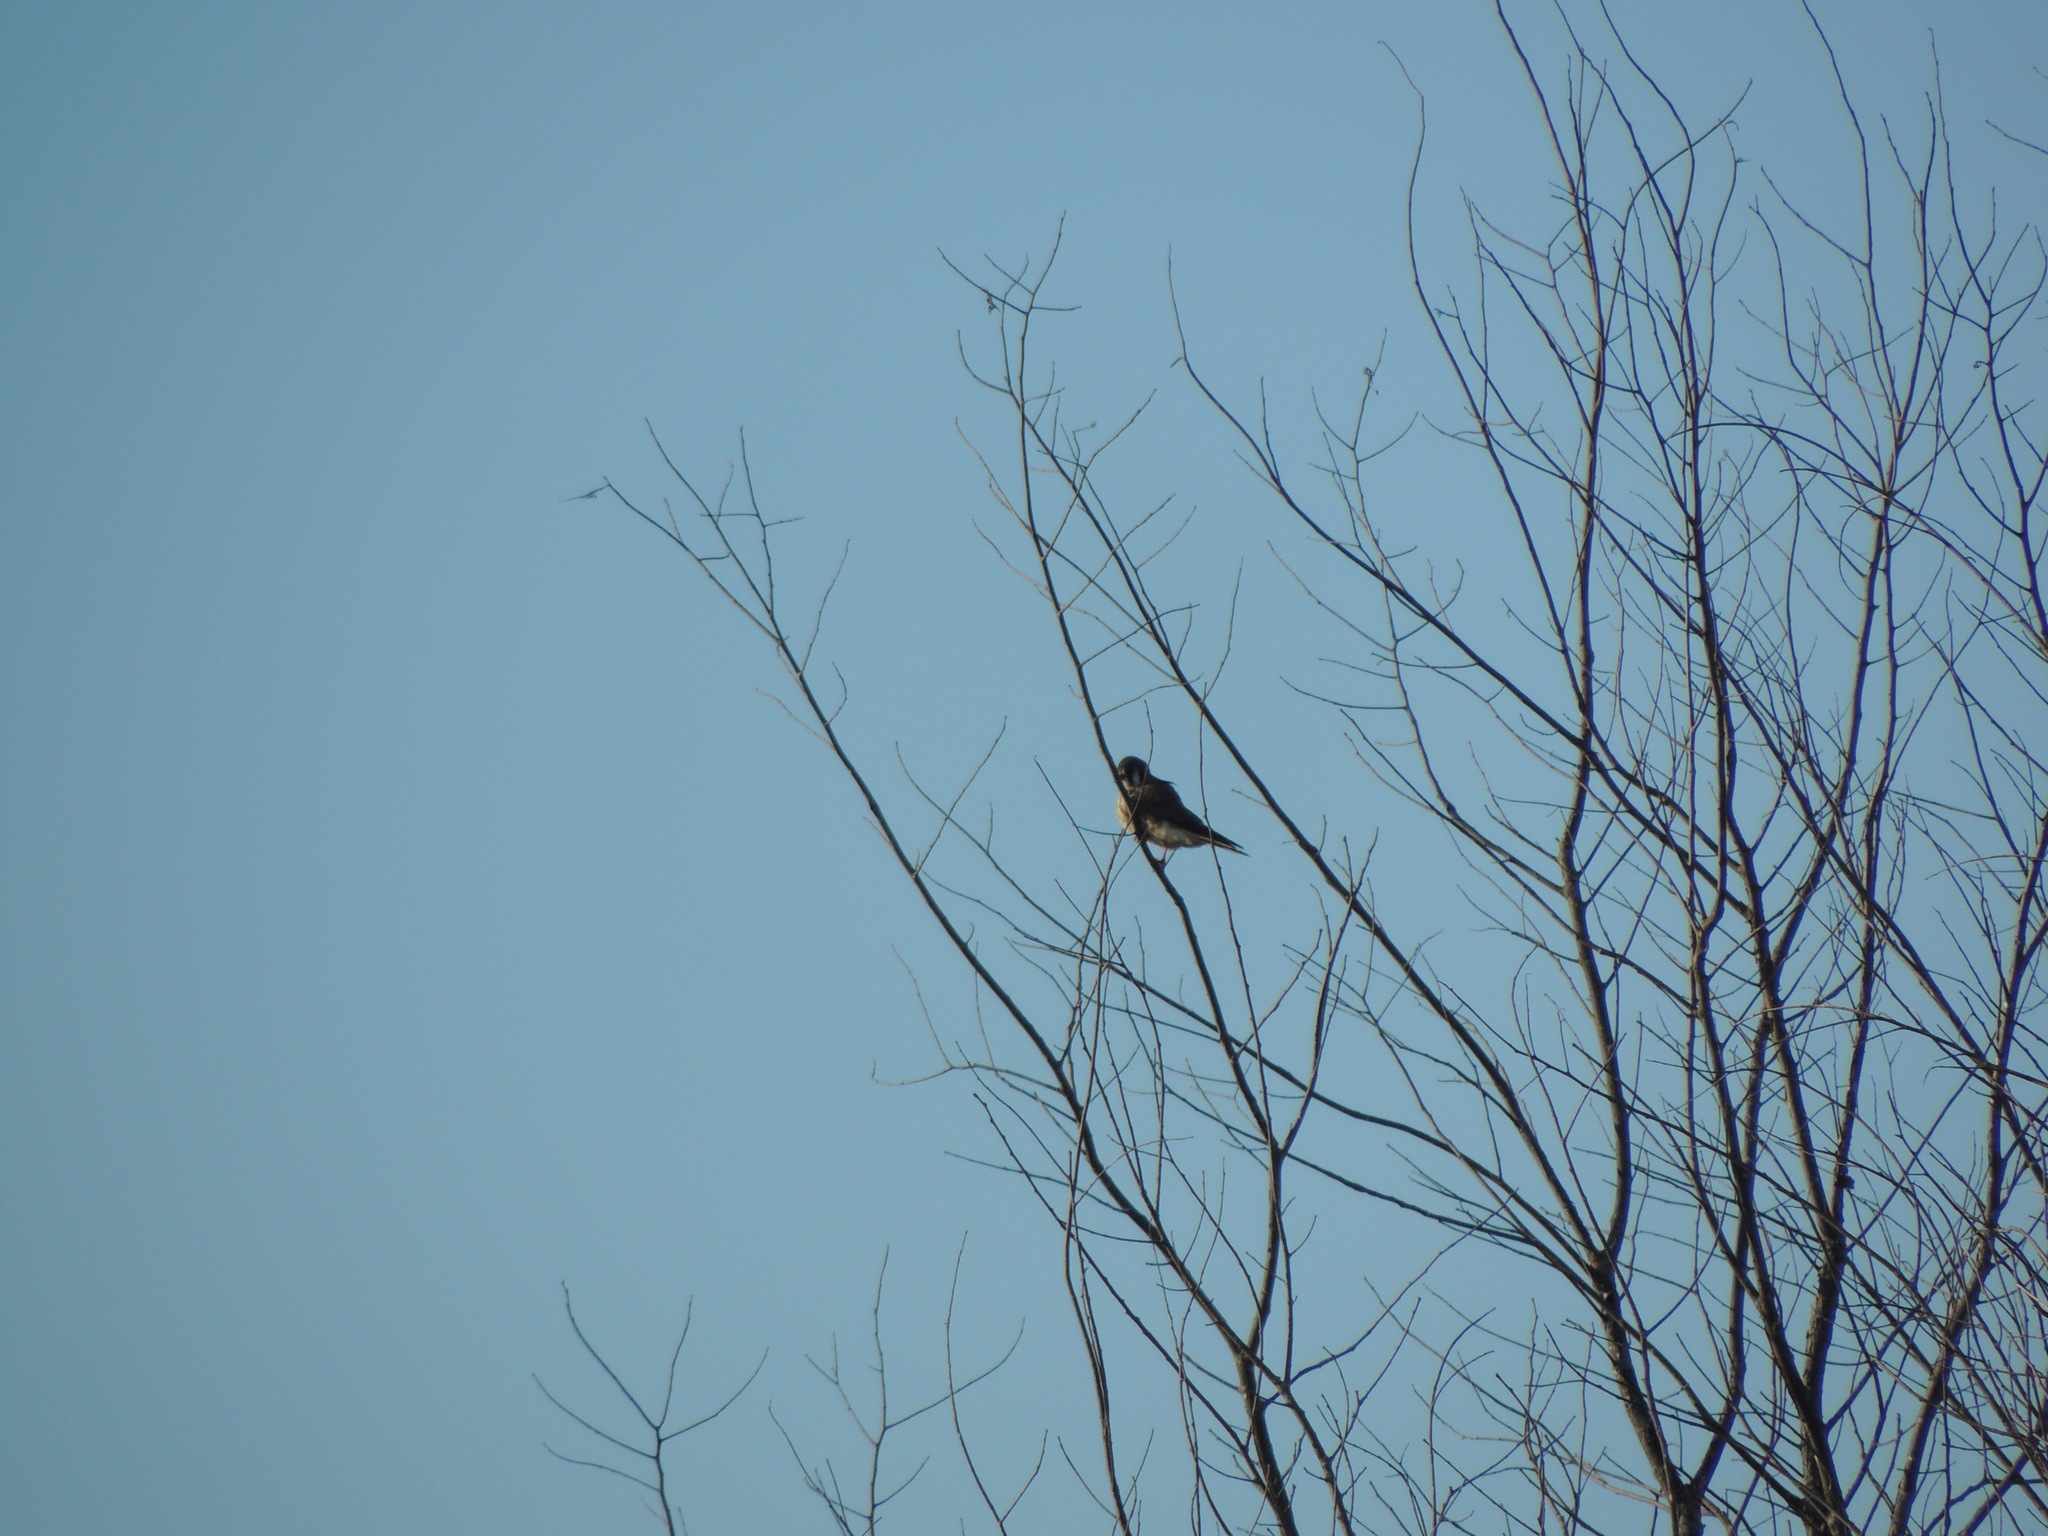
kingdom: Animalia
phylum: Chordata
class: Aves
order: Falconiformes
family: Falconidae
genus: Falco
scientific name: Falco sparverius
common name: American kestrel
